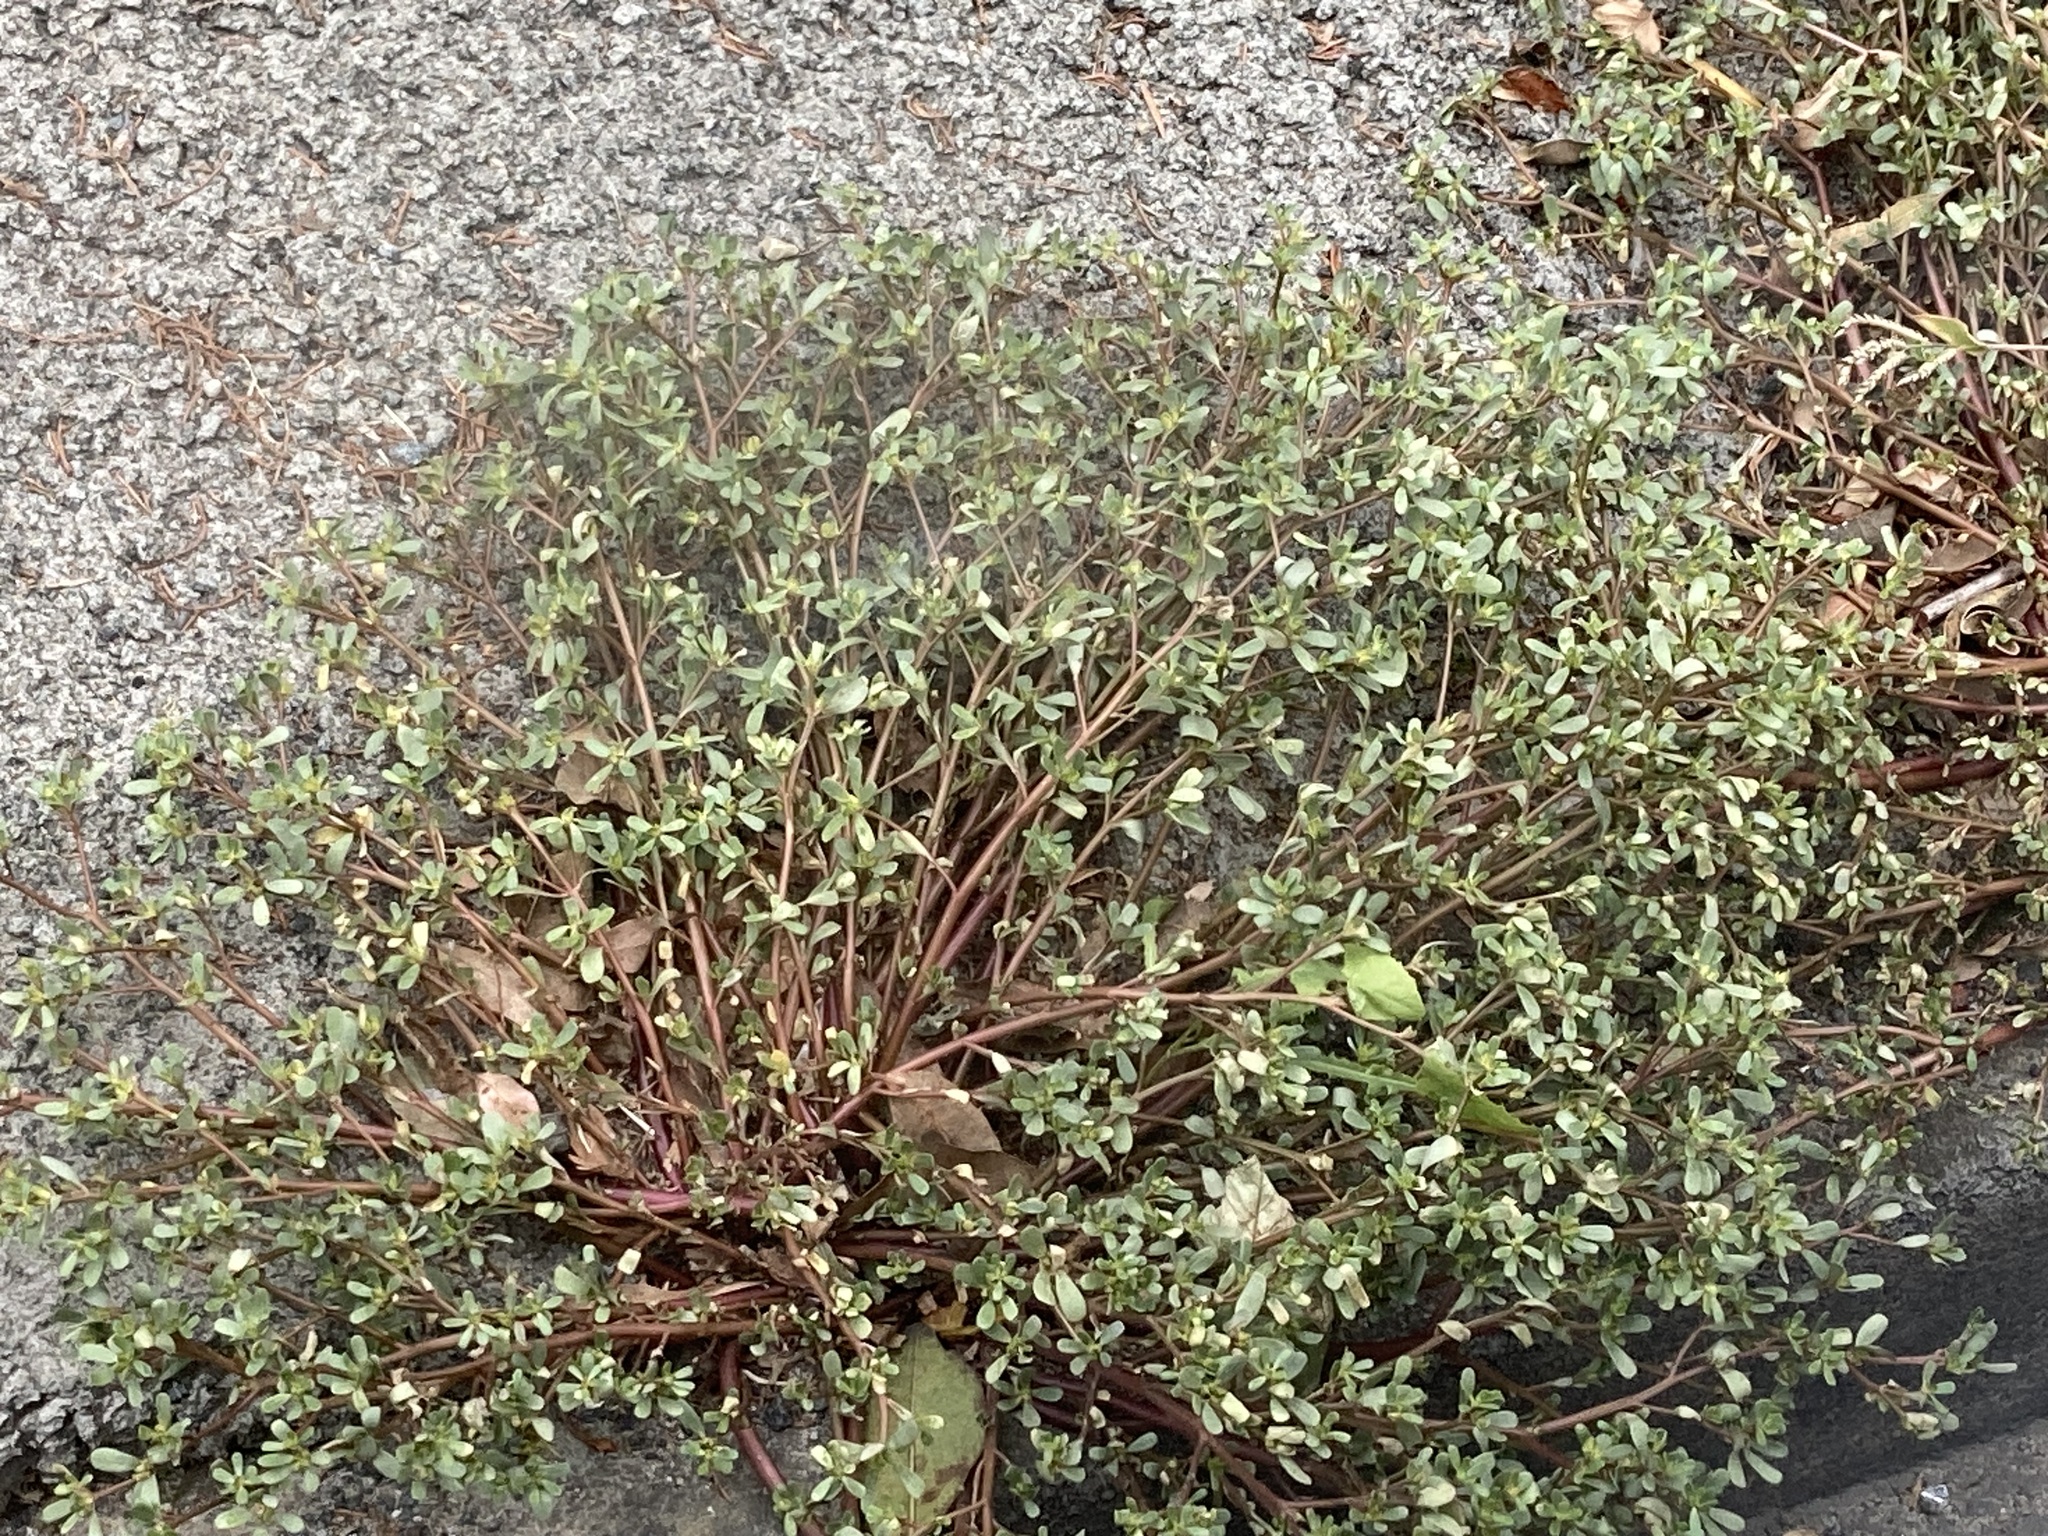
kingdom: Plantae
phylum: Tracheophyta
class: Magnoliopsida
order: Caryophyllales
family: Portulacaceae
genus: Portulaca
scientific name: Portulaca oleracea
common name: Common purslane
